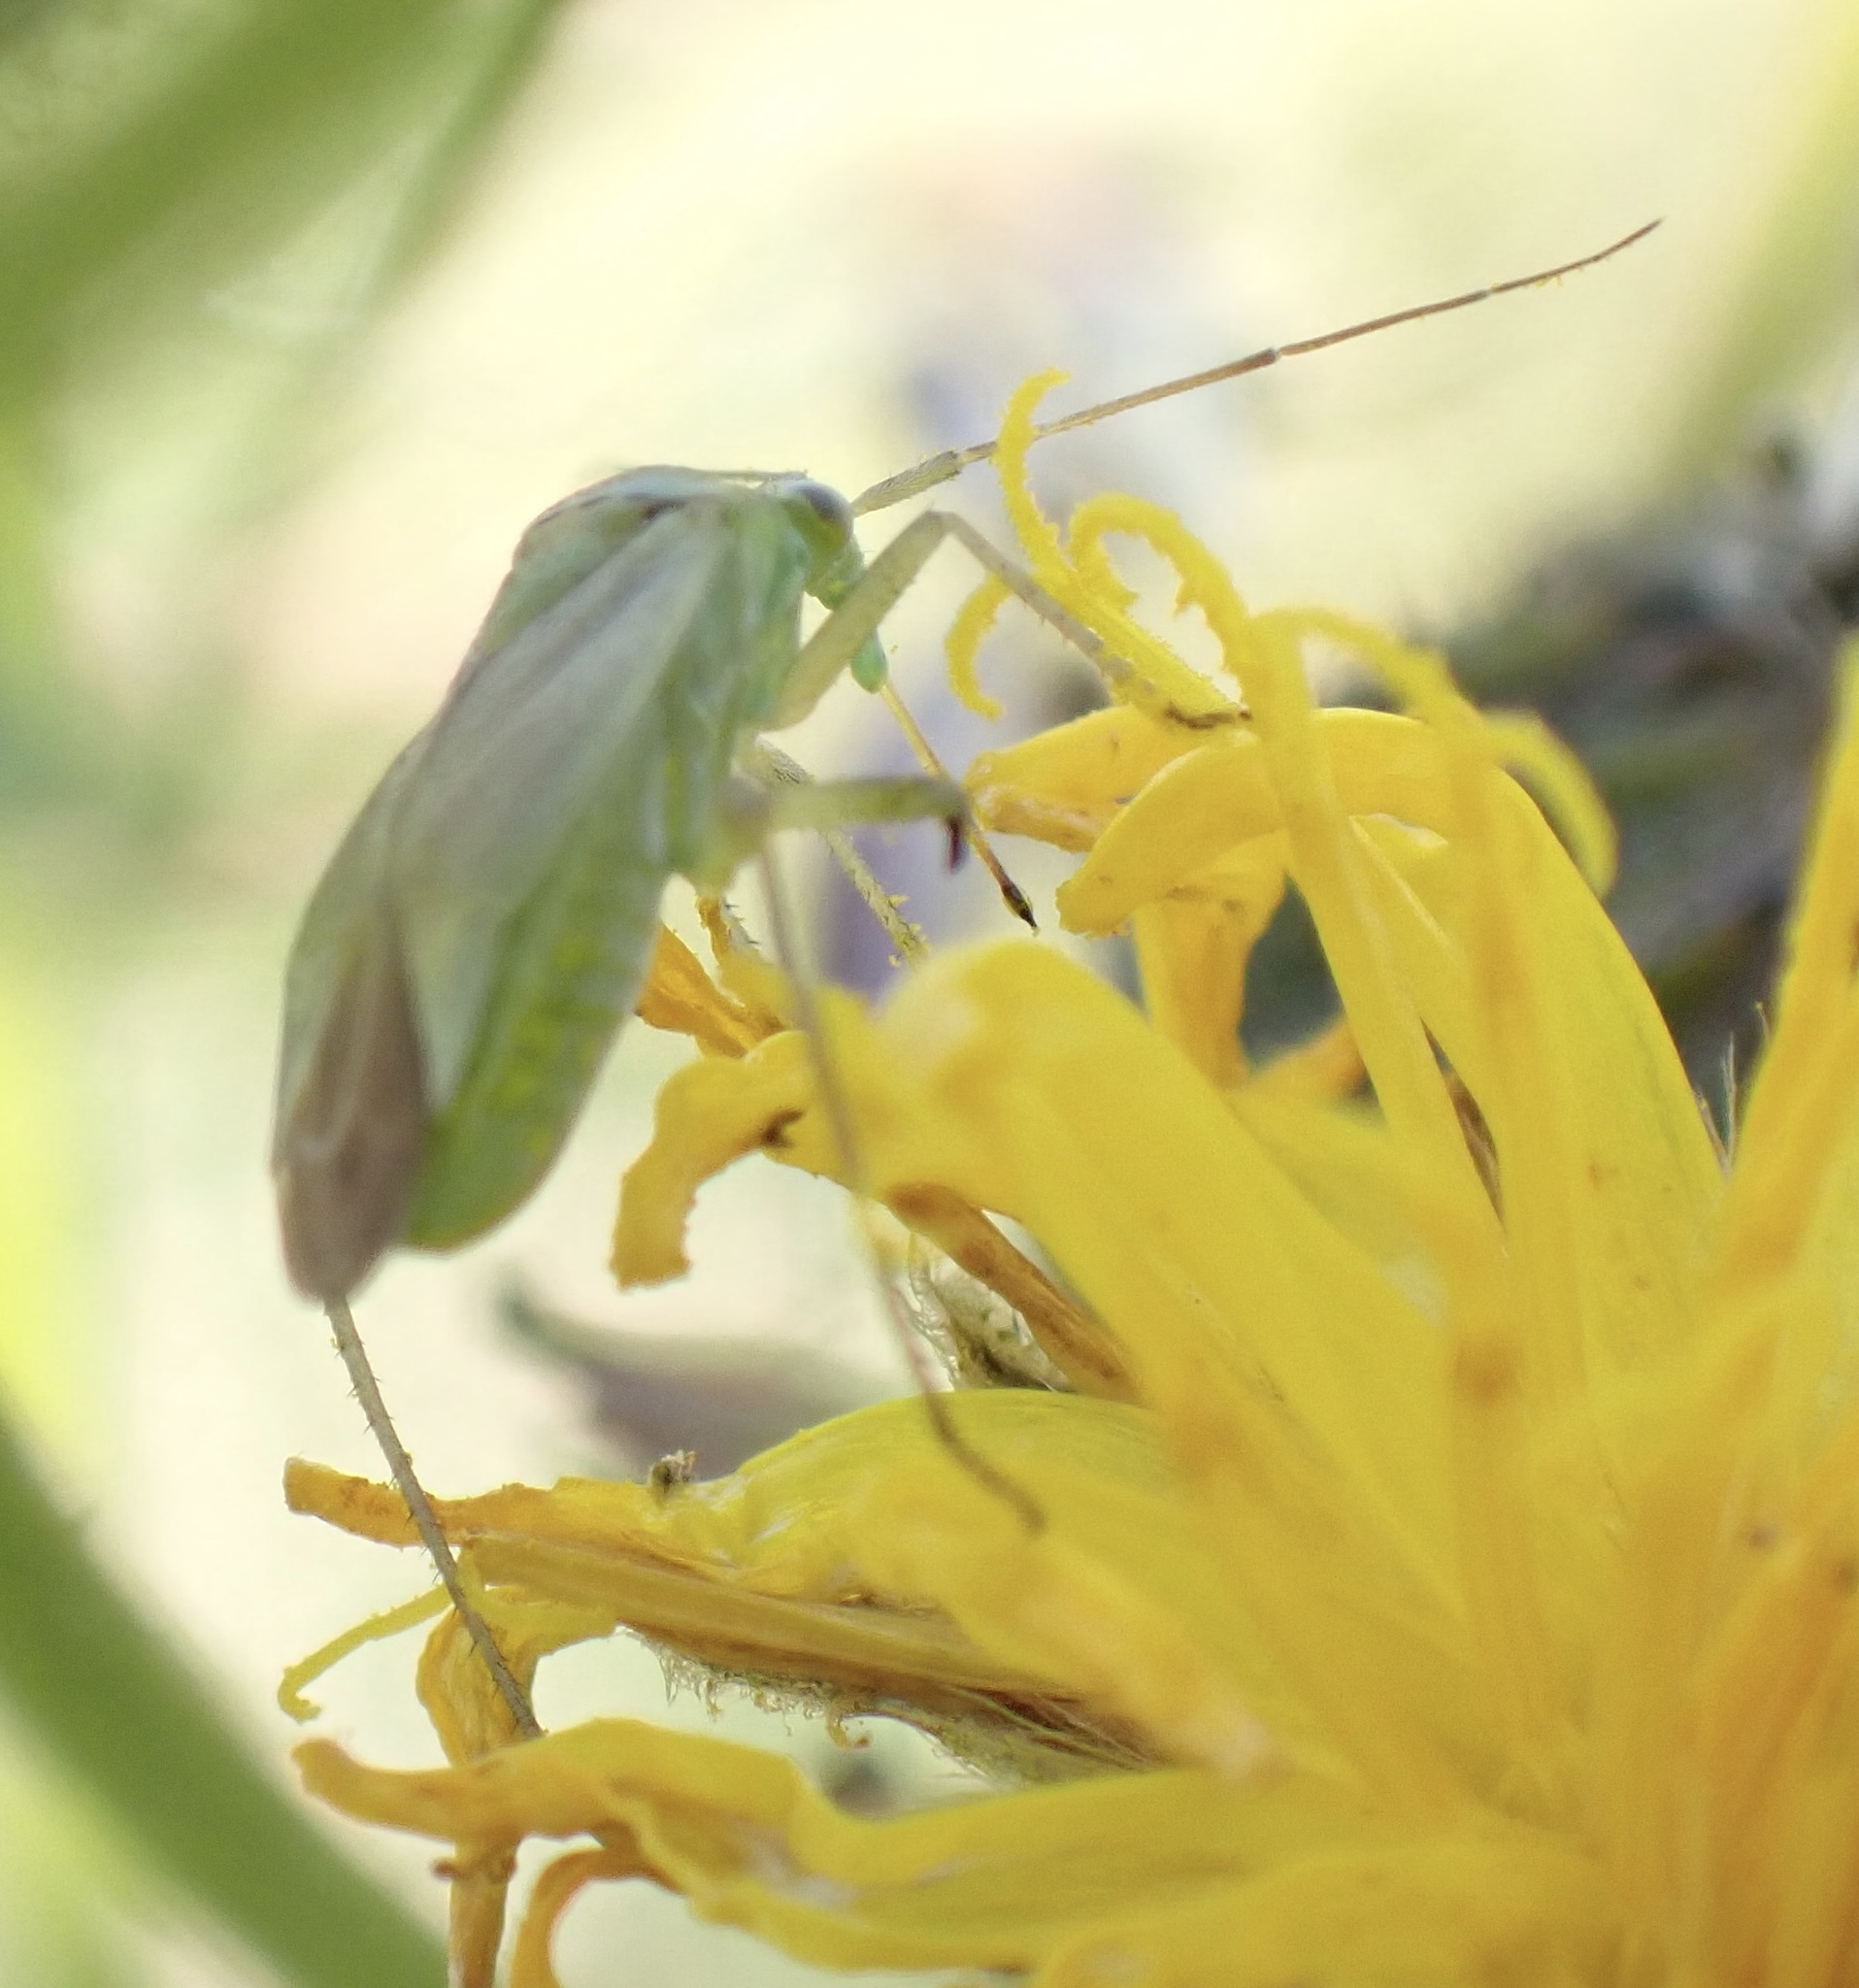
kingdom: Animalia
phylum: Arthropoda
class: Insecta
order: Hemiptera
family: Miridae
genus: Closterotomus
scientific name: Closterotomus norvegicus
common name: Plant bug
